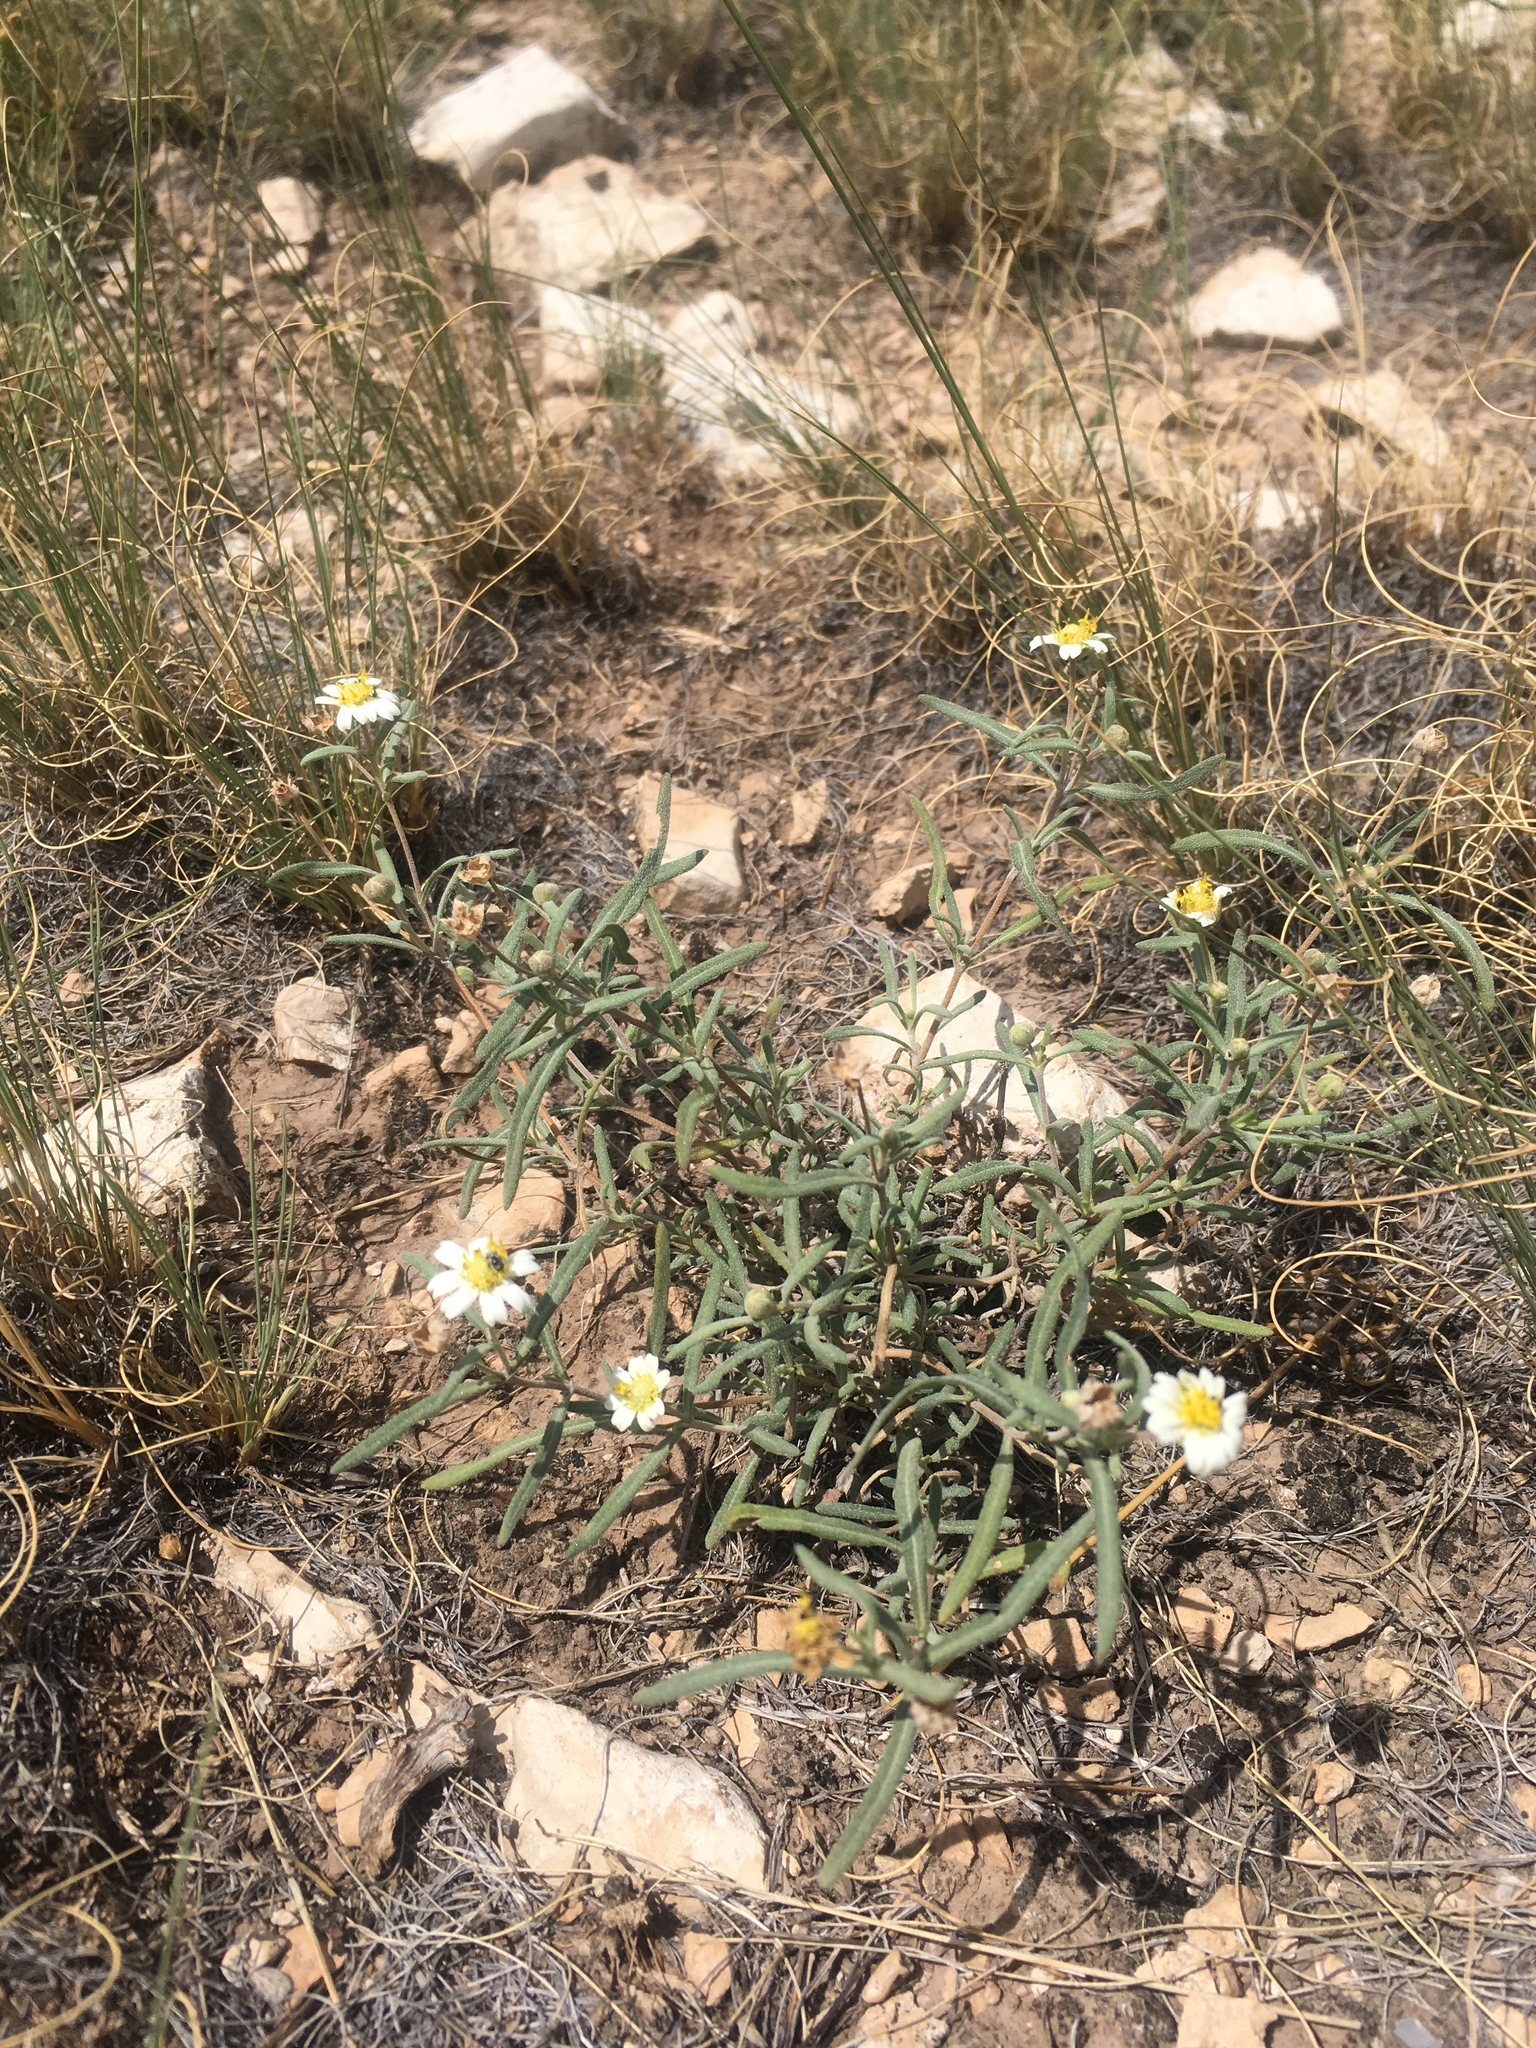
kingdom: Plantae
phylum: Tracheophyta
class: Magnoliopsida
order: Asterales
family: Asteraceae
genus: Melampodium
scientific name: Melampodium leucanthum
